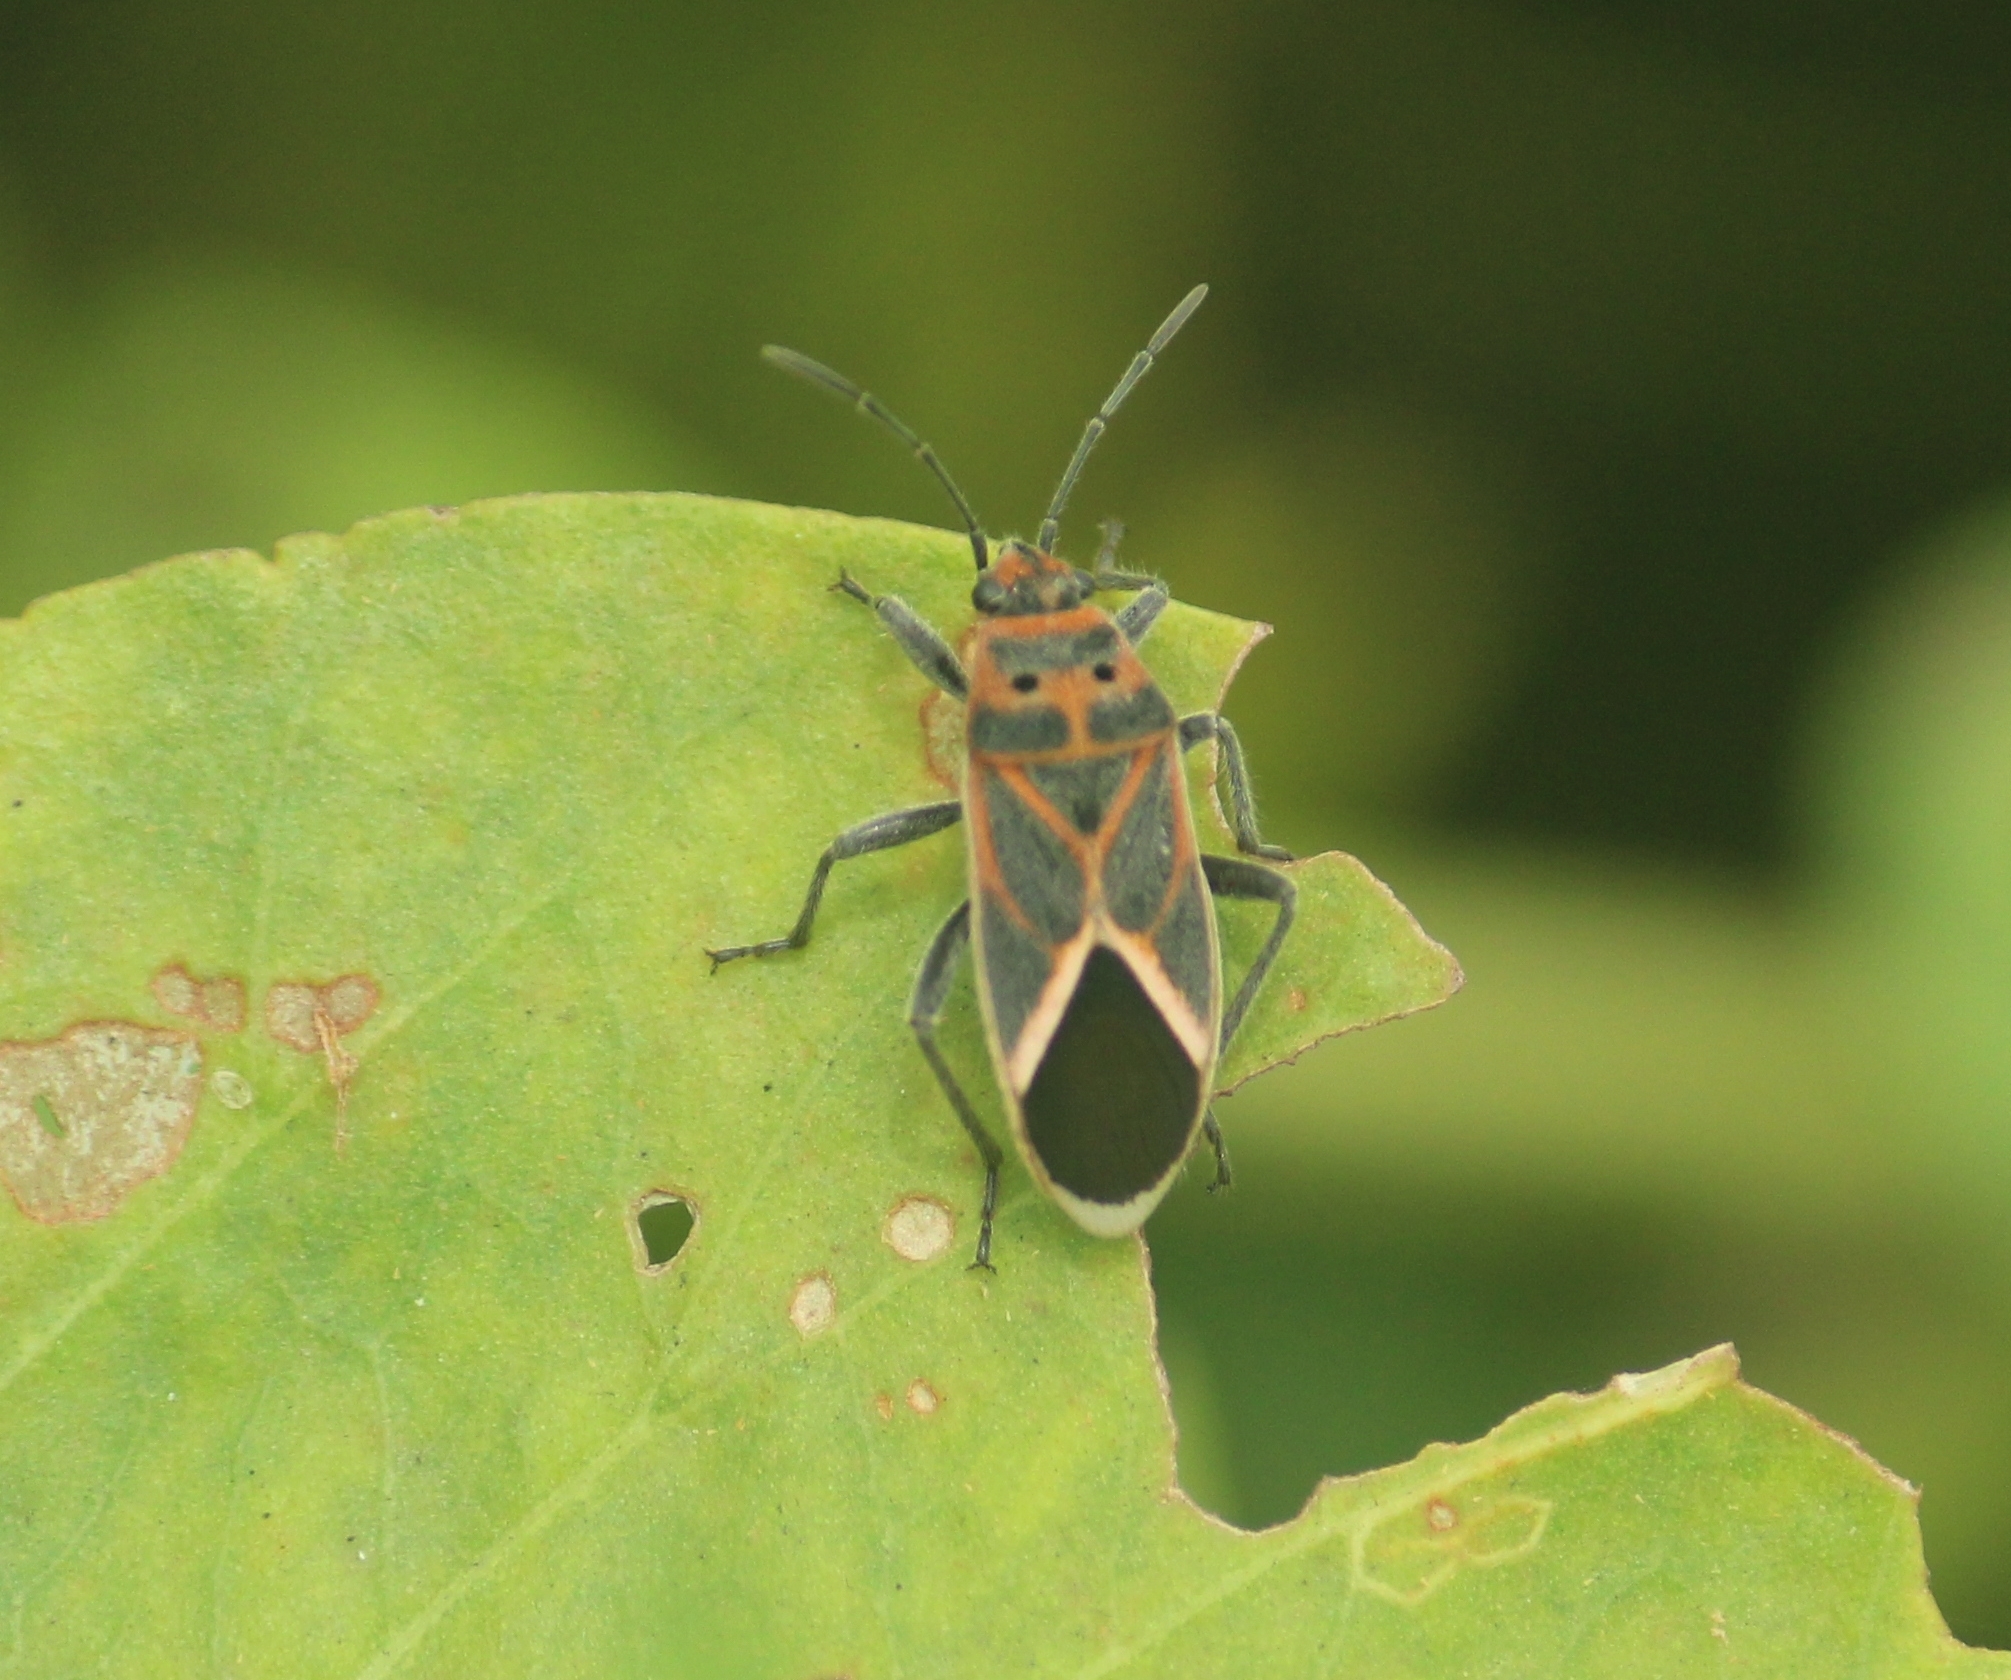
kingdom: Animalia
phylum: Arthropoda
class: Insecta
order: Hemiptera
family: Lygaeidae
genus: Graptostethus
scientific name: Graptostethus servus
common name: Lygaeid bug
